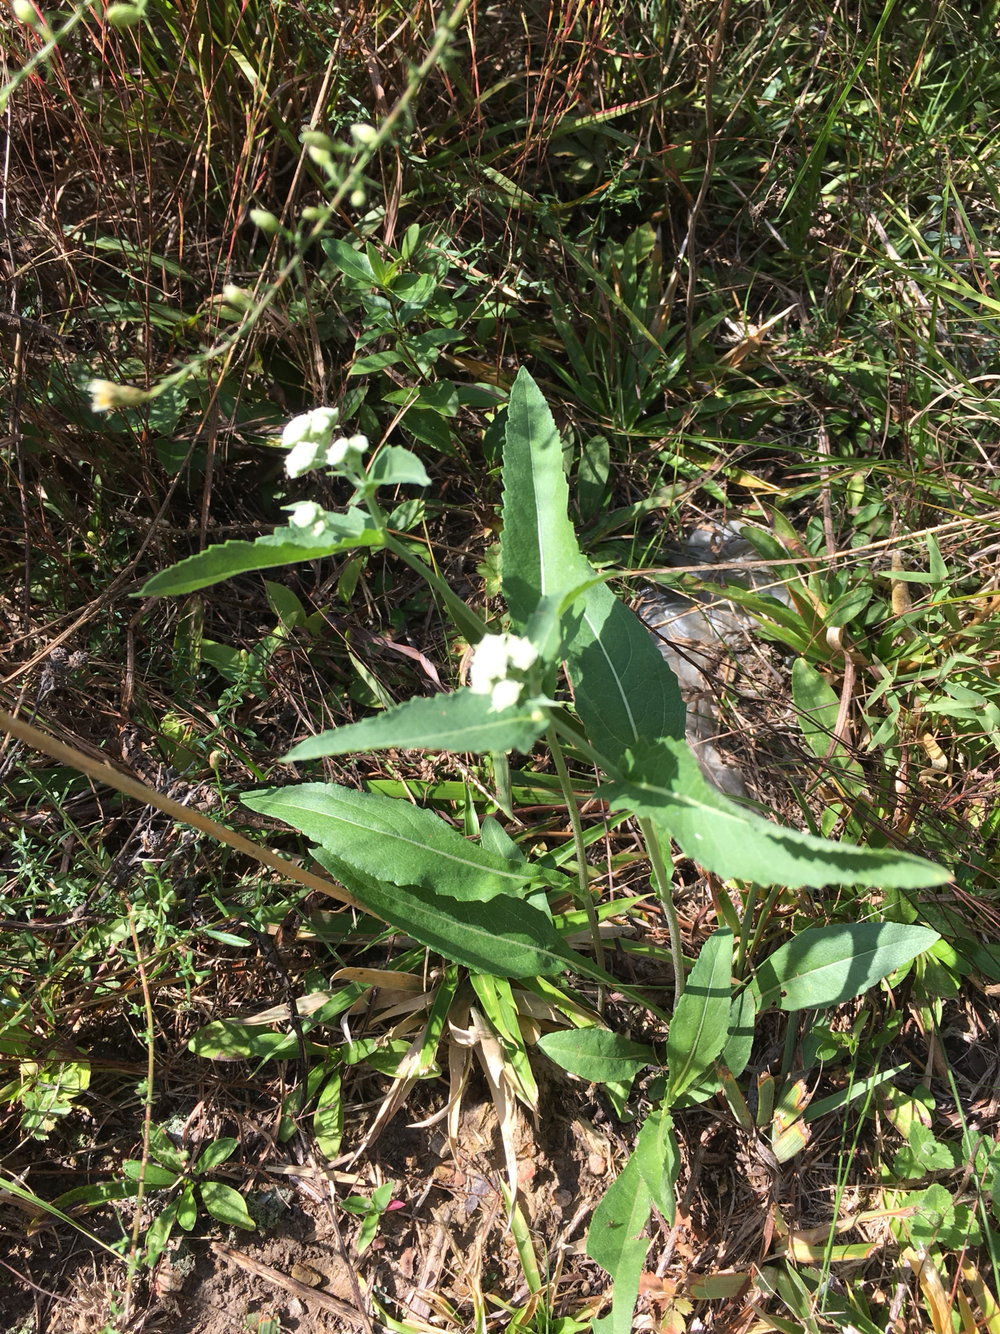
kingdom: Plantae
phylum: Tracheophyta
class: Magnoliopsida
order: Asterales
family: Asteraceae
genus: Parthenium
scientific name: Parthenium integrifolium
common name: American feverfew
